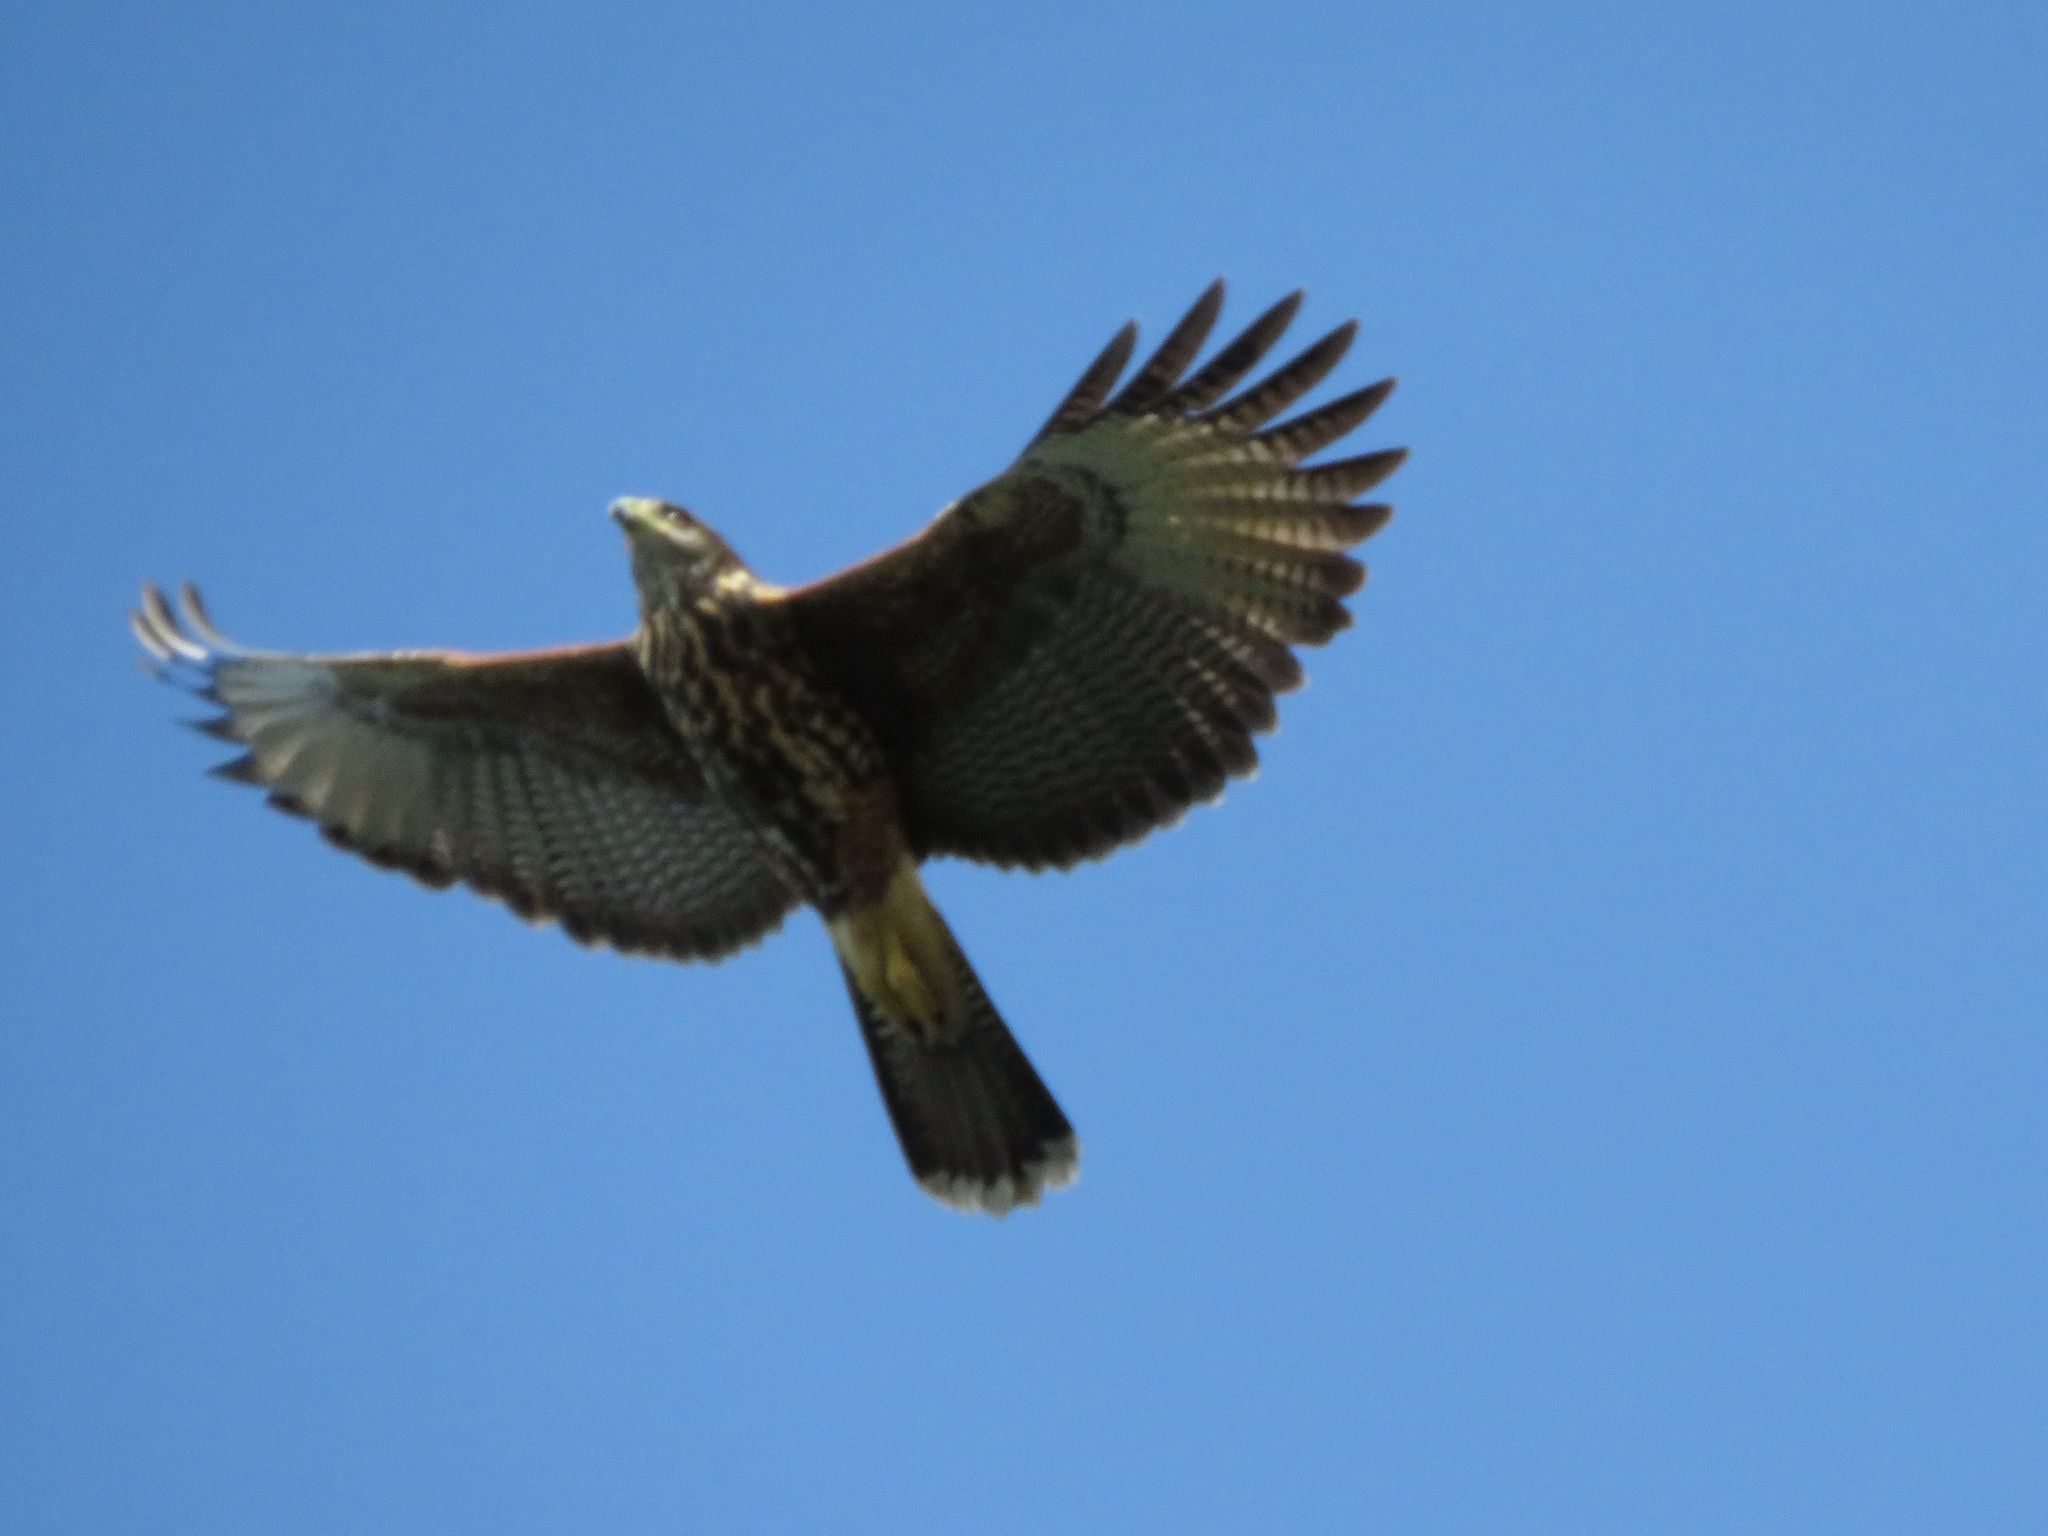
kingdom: Animalia
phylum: Chordata
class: Aves
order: Accipitriformes
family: Accipitridae
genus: Parabuteo
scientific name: Parabuteo unicinctus
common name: Harris's hawk
